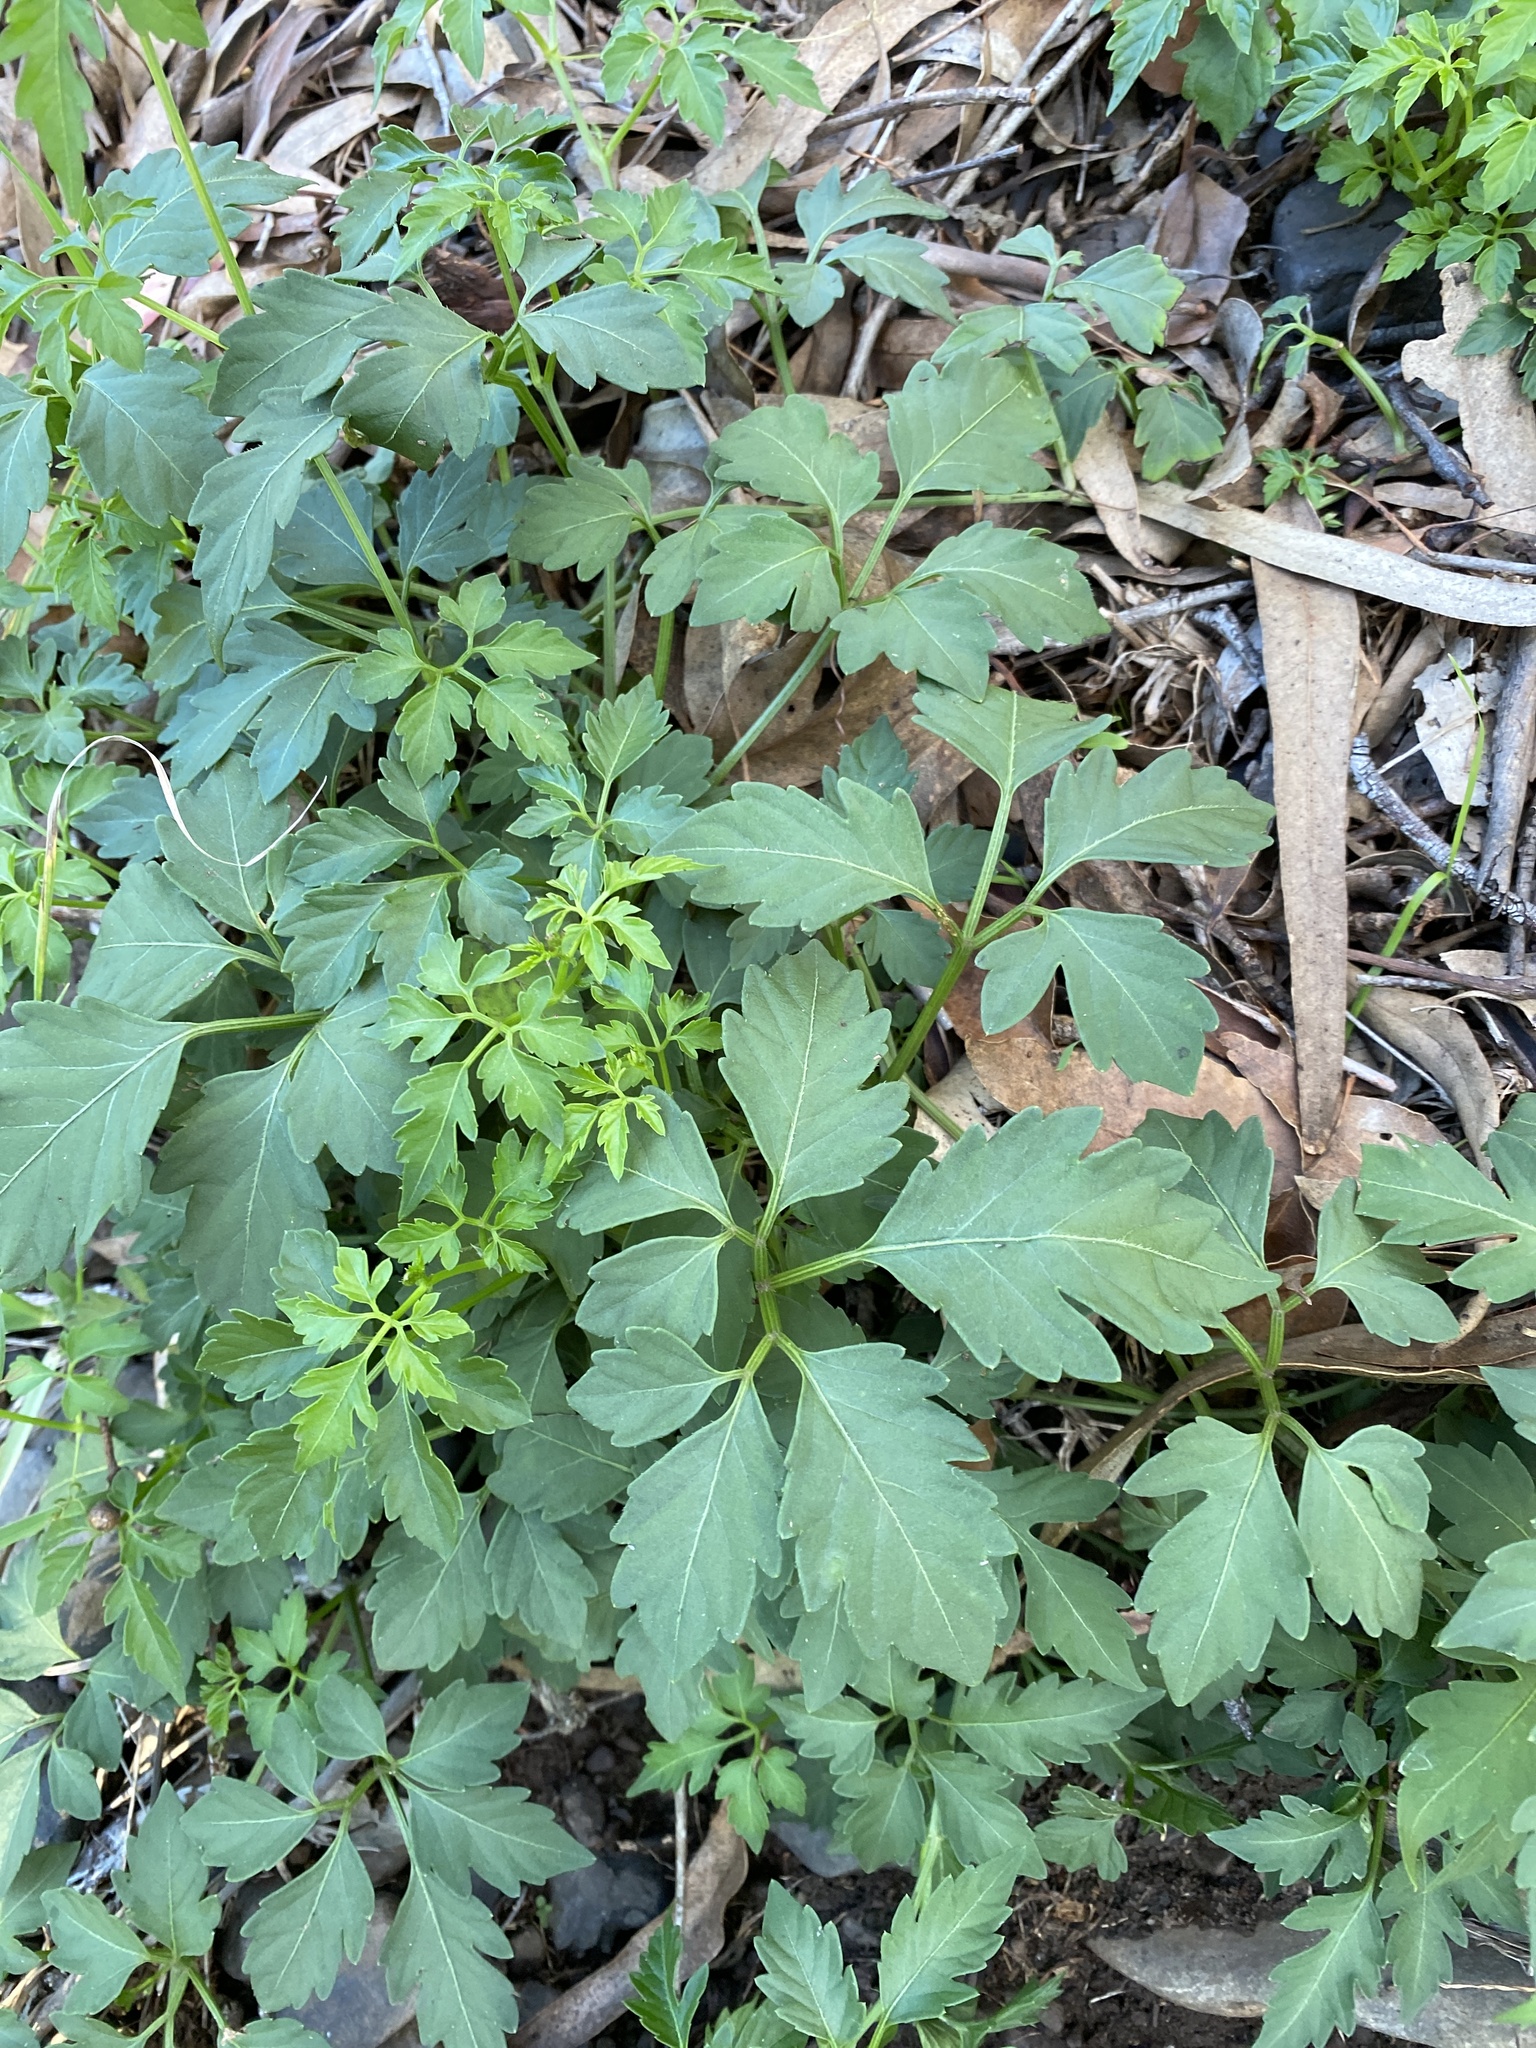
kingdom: Plantae
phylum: Tracheophyta
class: Magnoliopsida
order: Vitales
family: Vitaceae
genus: Causonis
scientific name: Causonis clematidea
